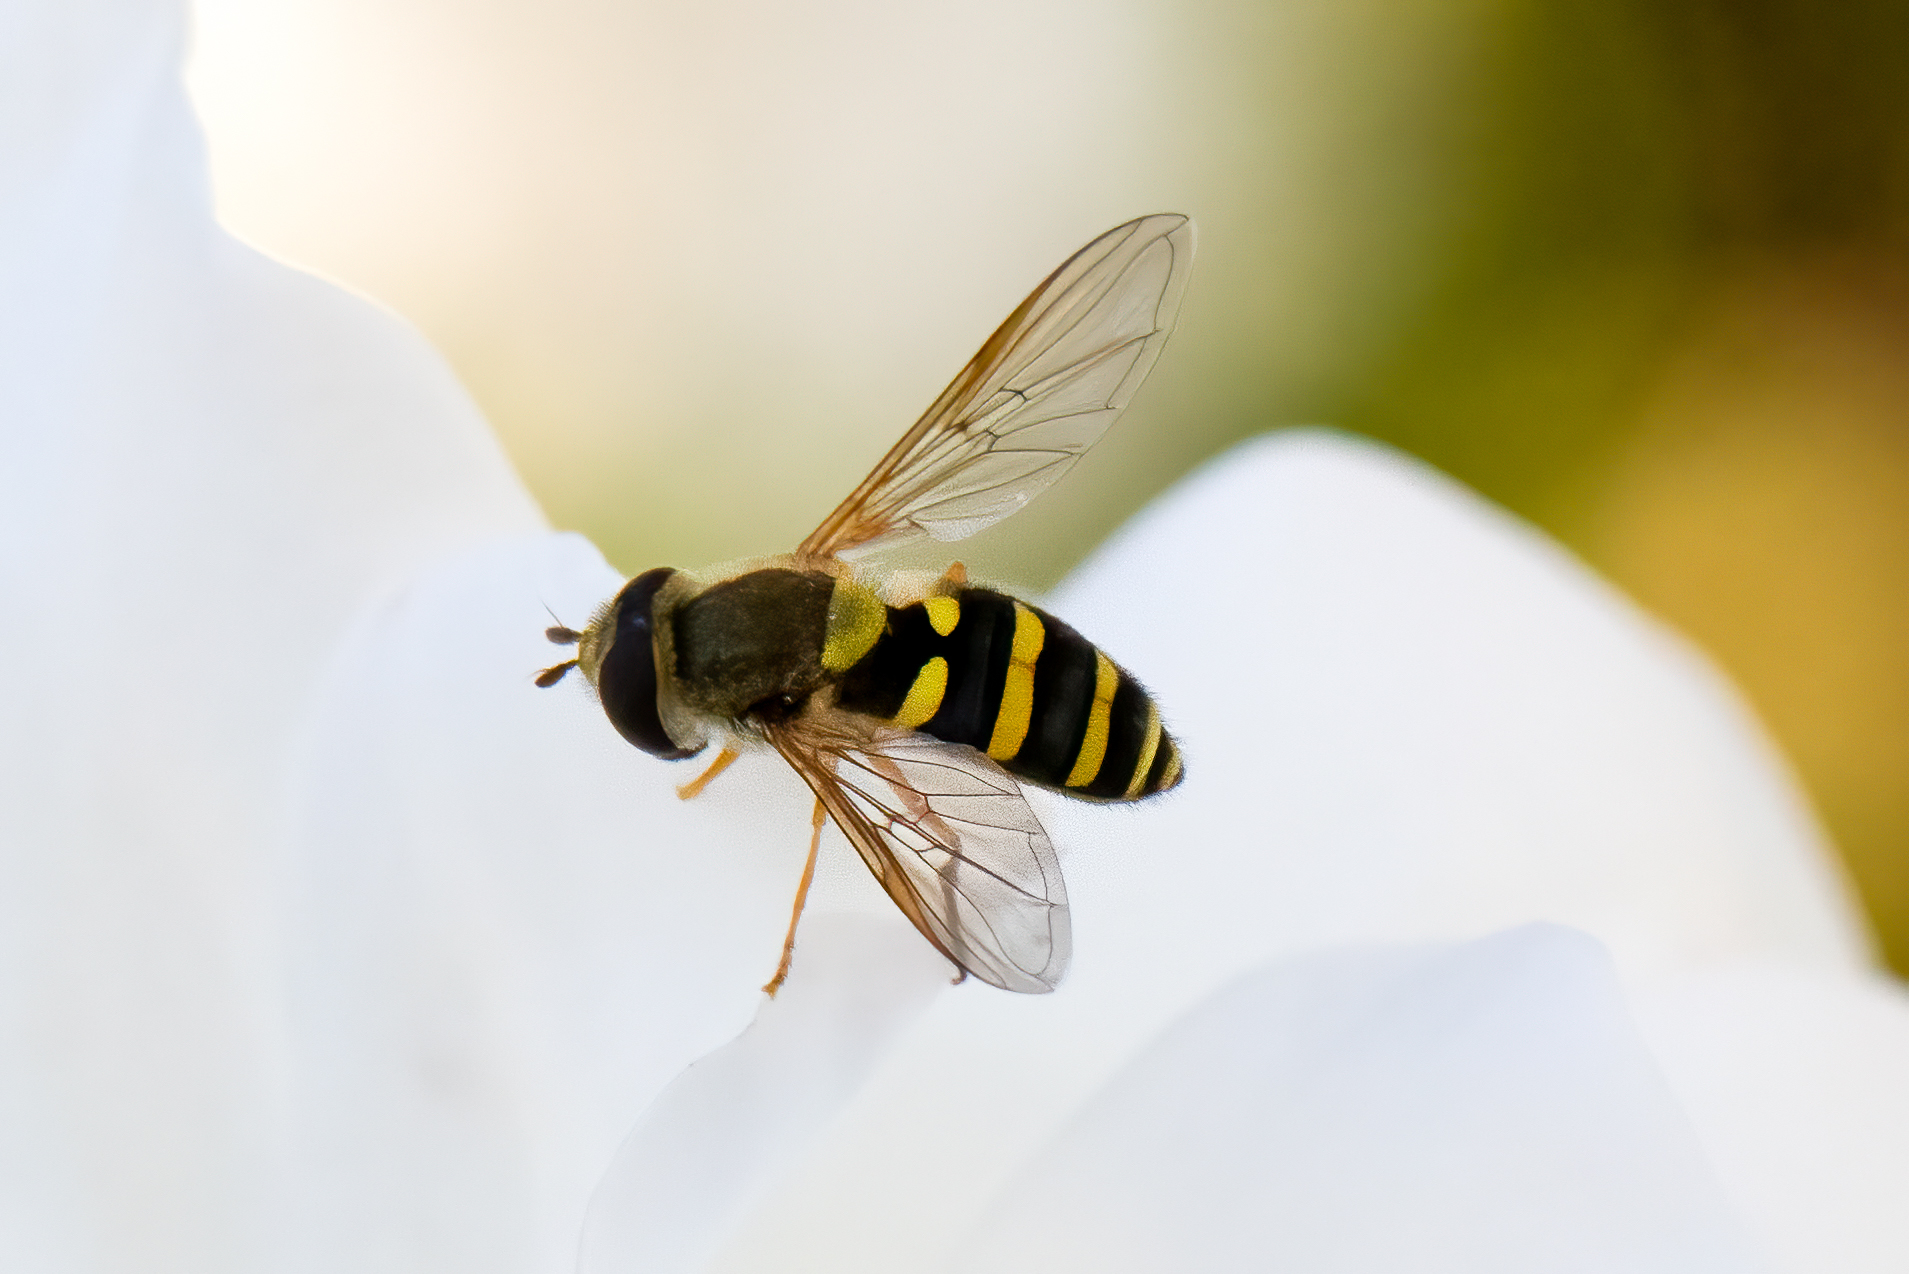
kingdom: Animalia
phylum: Arthropoda
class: Insecta
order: Diptera
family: Syrphidae
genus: Syrphus
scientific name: Syrphus opinator
